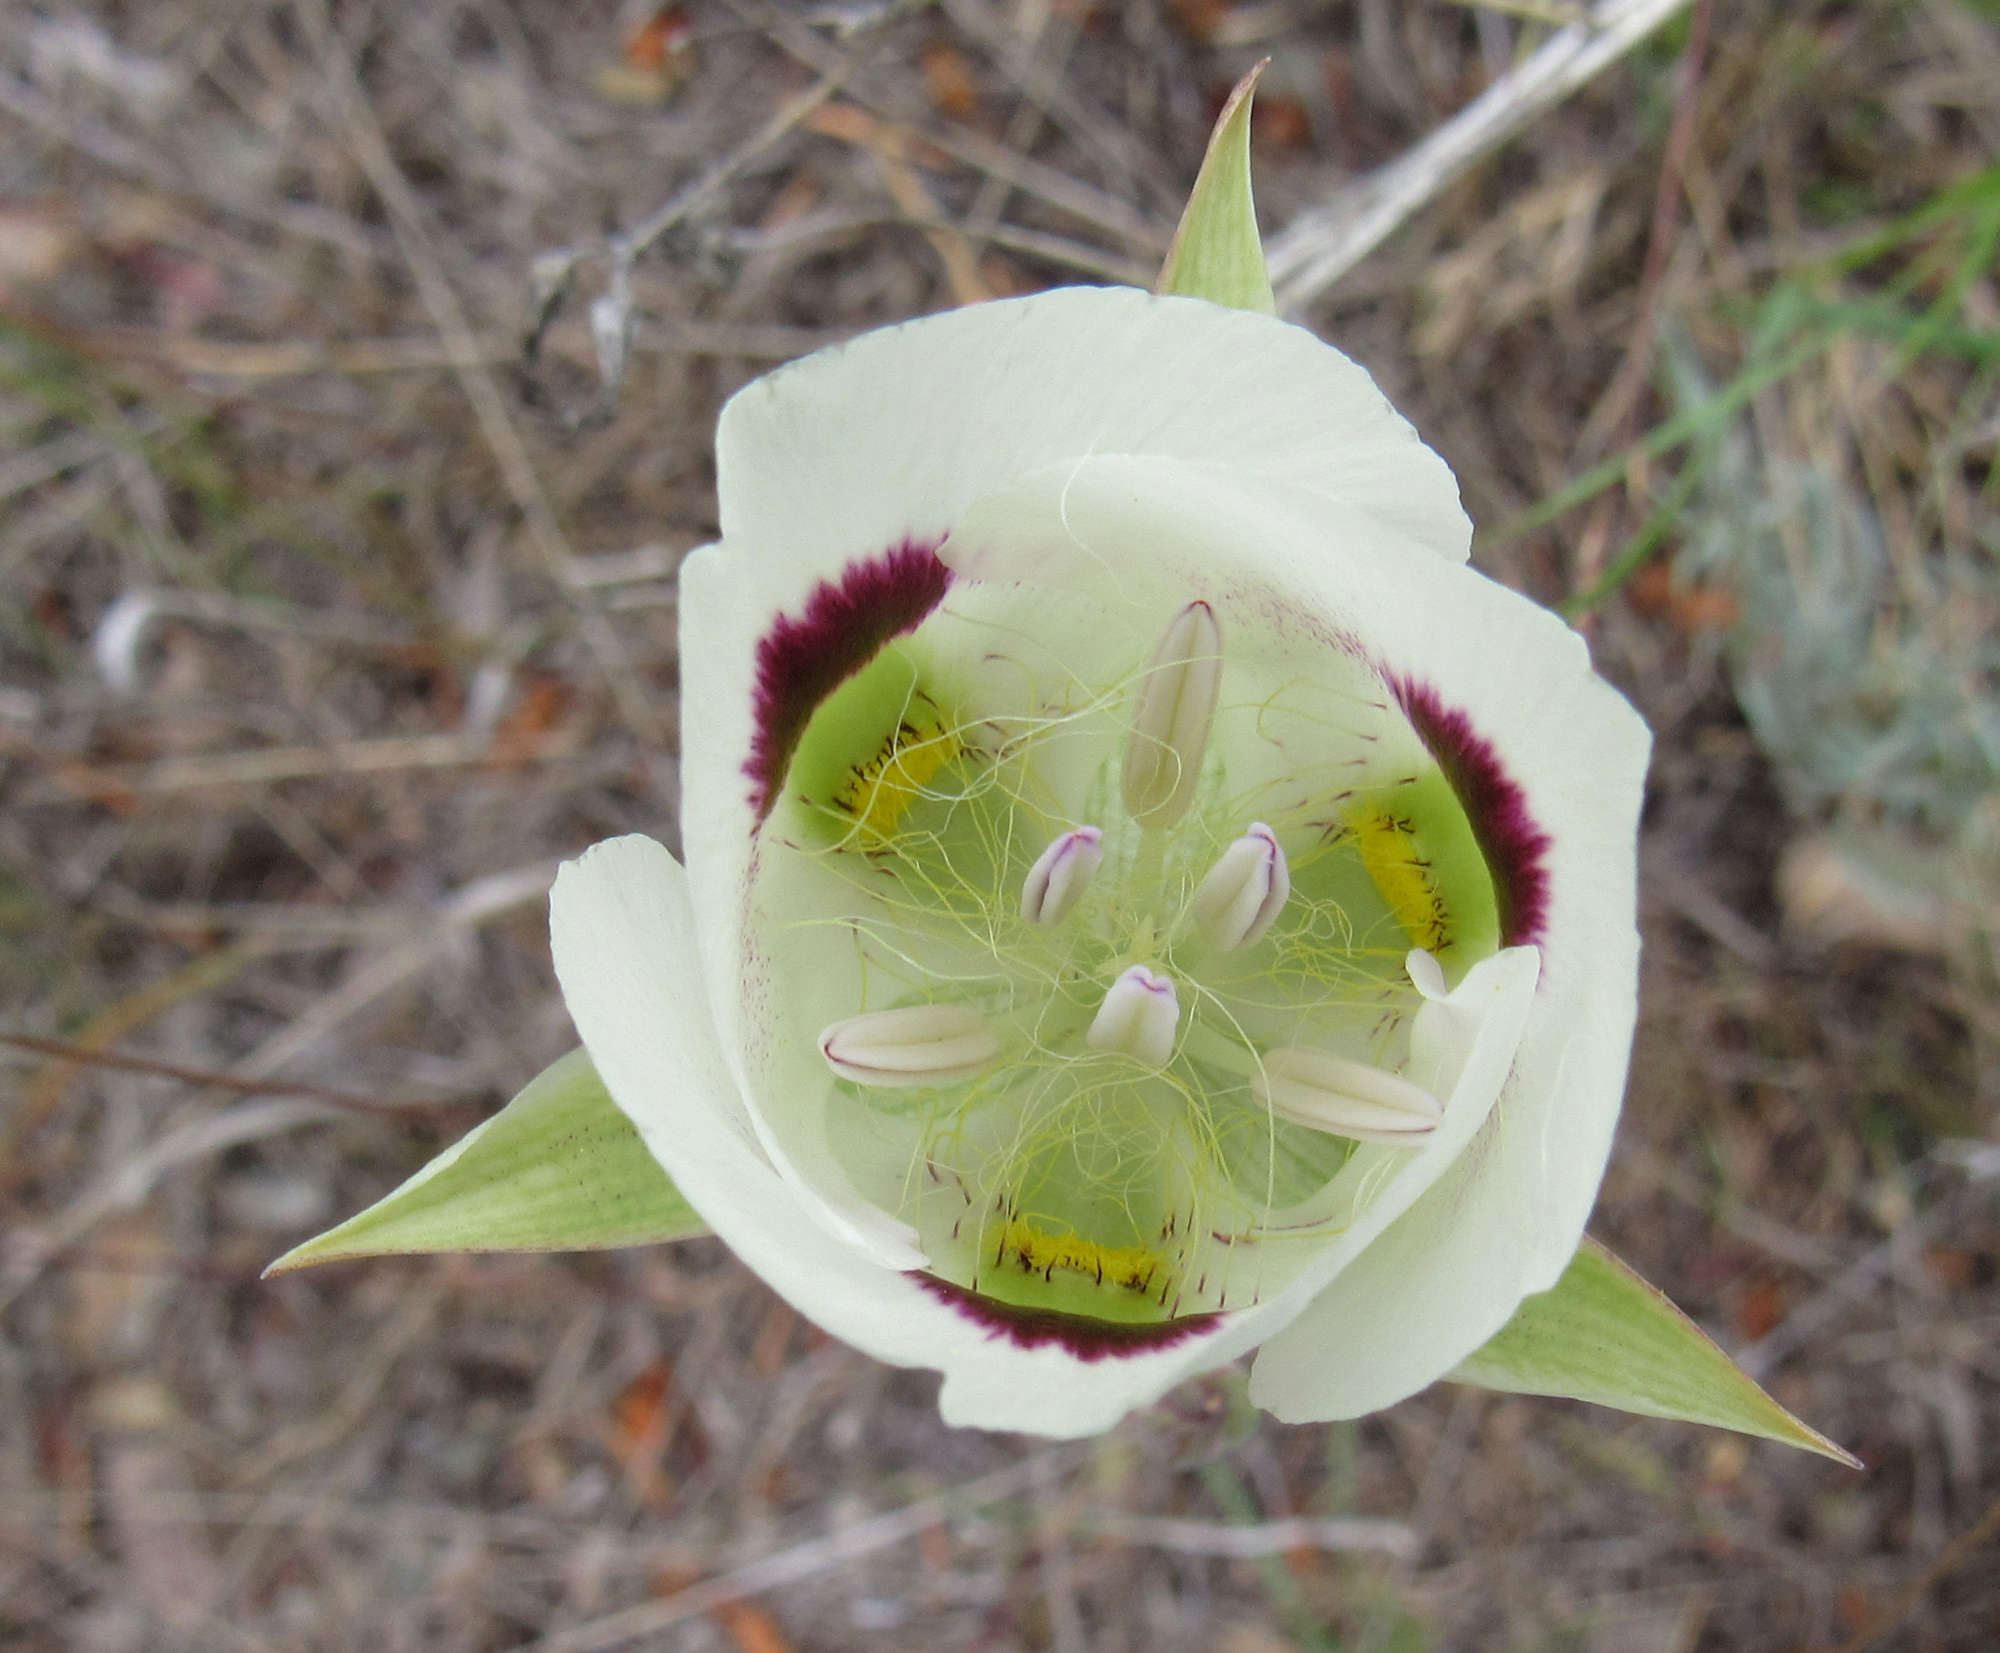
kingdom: Plantae
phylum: Tracheophyta
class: Liliopsida
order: Liliales
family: Liliaceae
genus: Calochortus
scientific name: Calochortus eurycarpus
